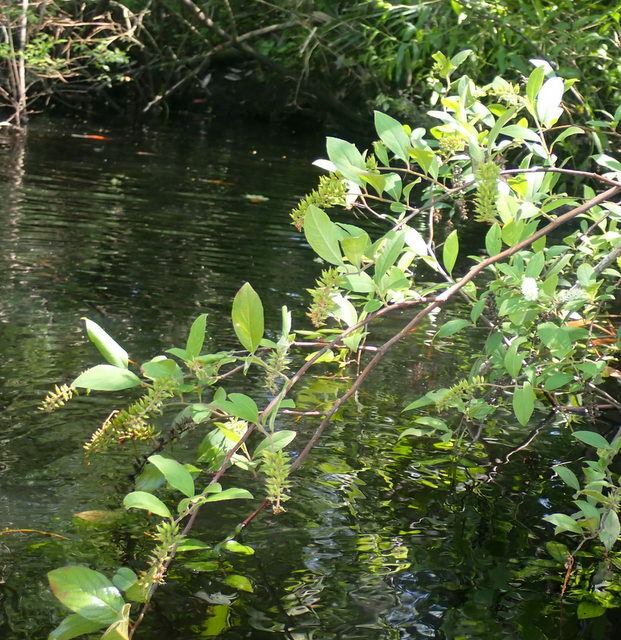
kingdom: Plantae
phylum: Tracheophyta
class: Magnoliopsida
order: Saxifragales
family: Iteaceae
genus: Itea
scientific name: Itea virginica
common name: Sweetspire
